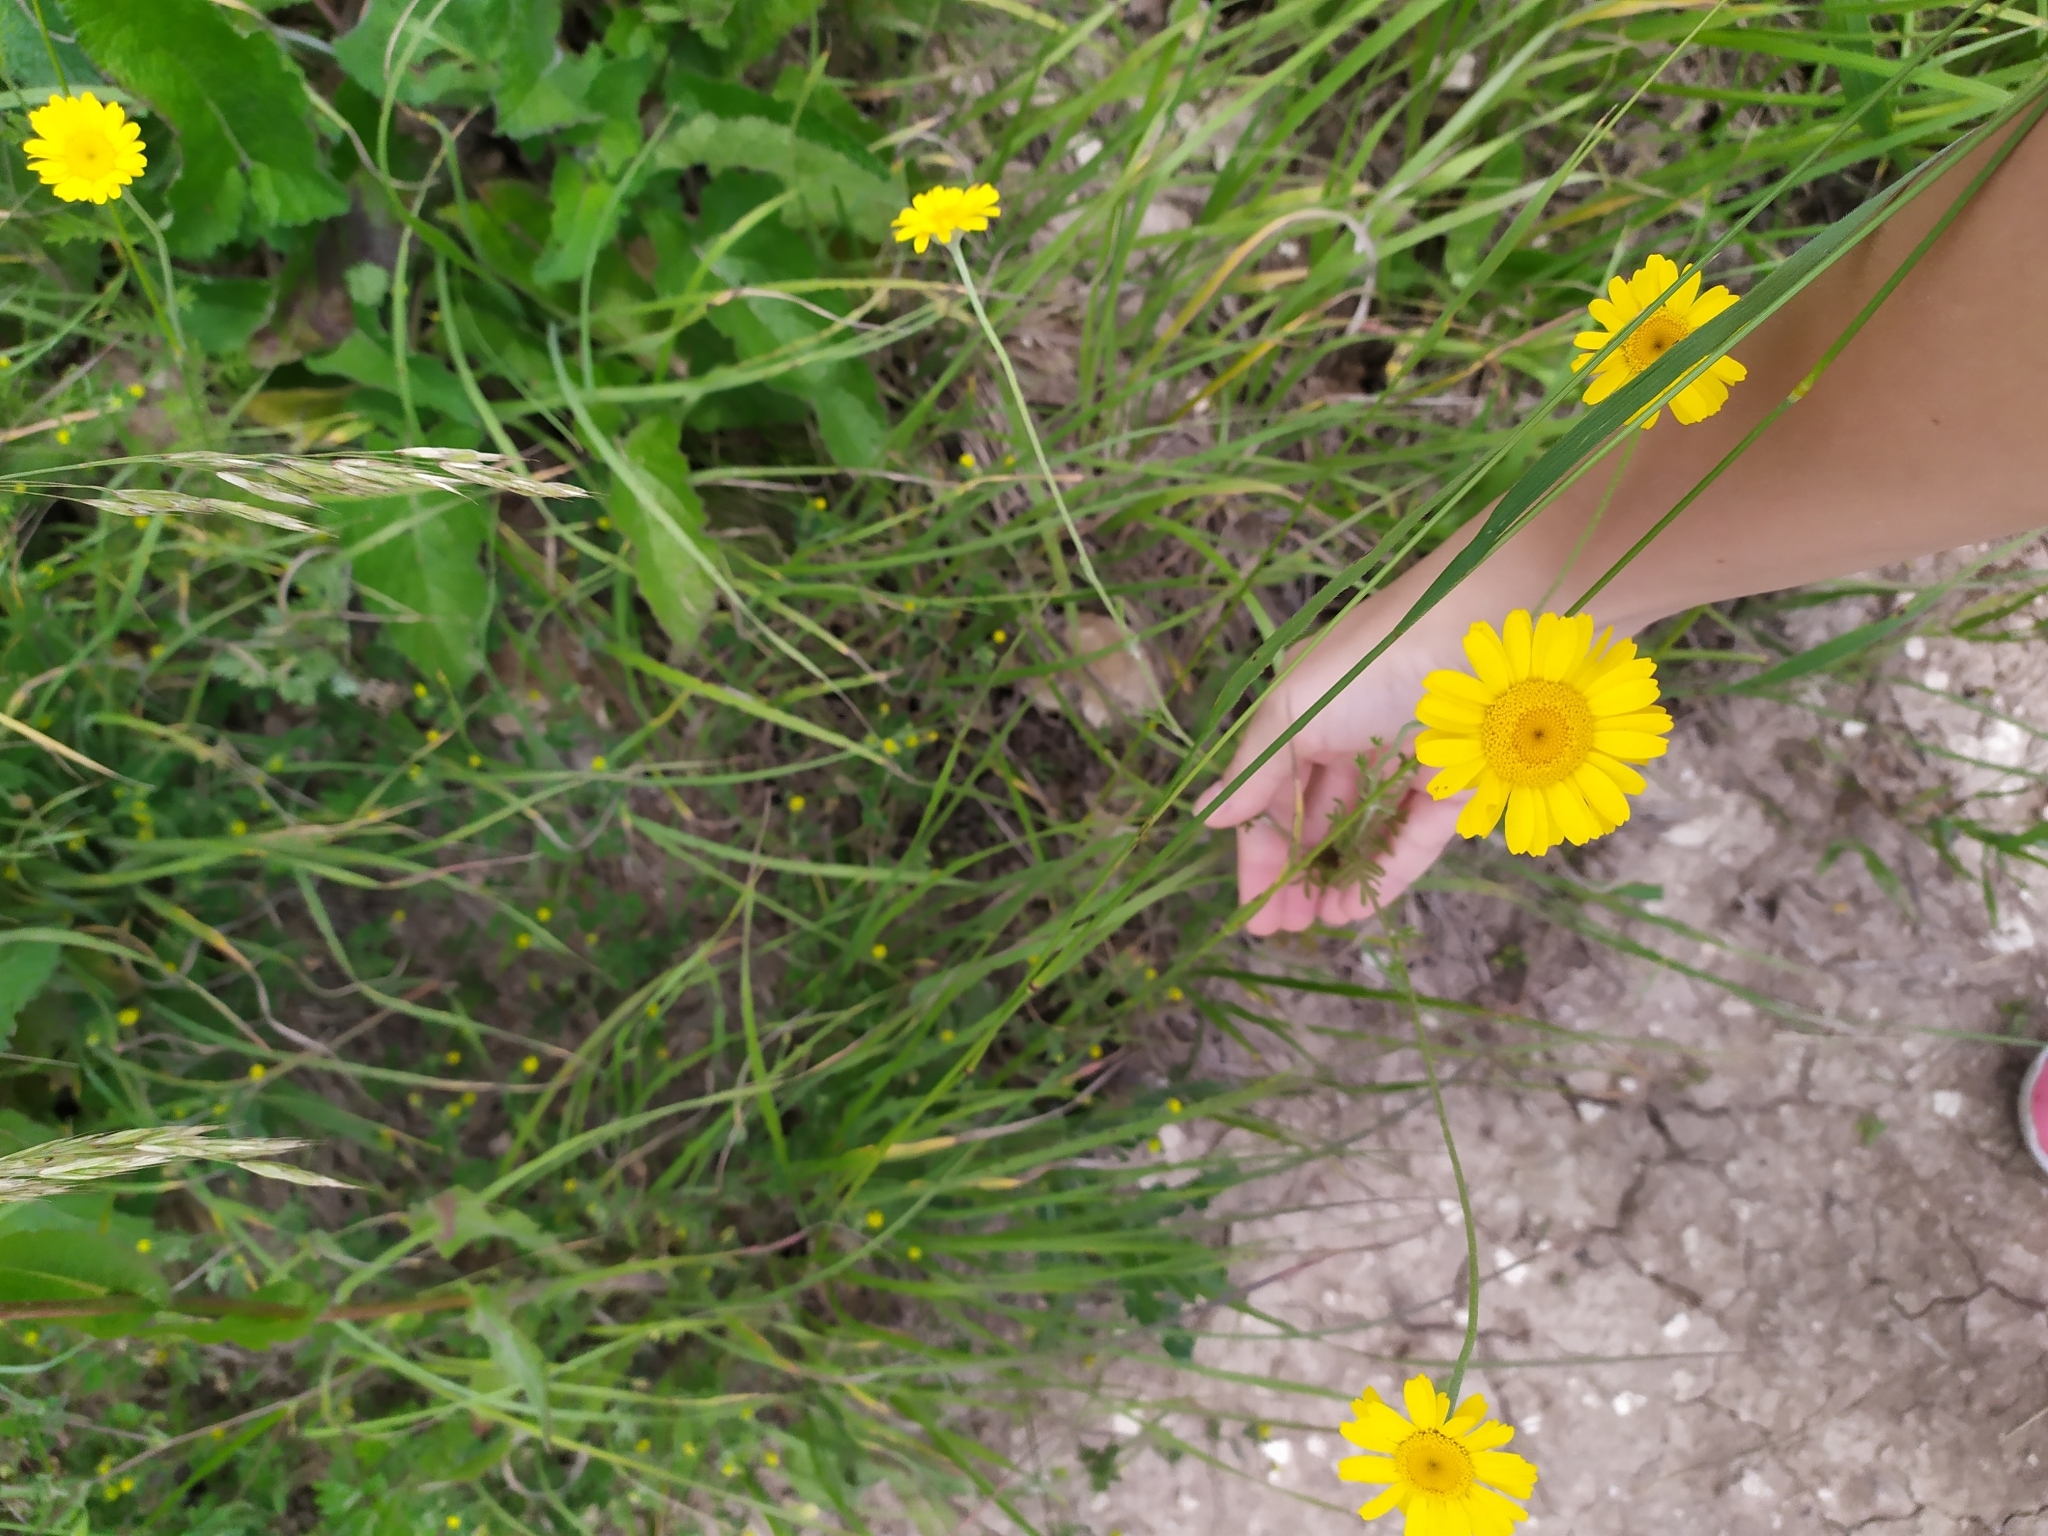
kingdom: Plantae
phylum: Tracheophyta
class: Magnoliopsida
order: Asterales
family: Asteraceae
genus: Cota
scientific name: Cota tinctoria
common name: Golden chamomile
